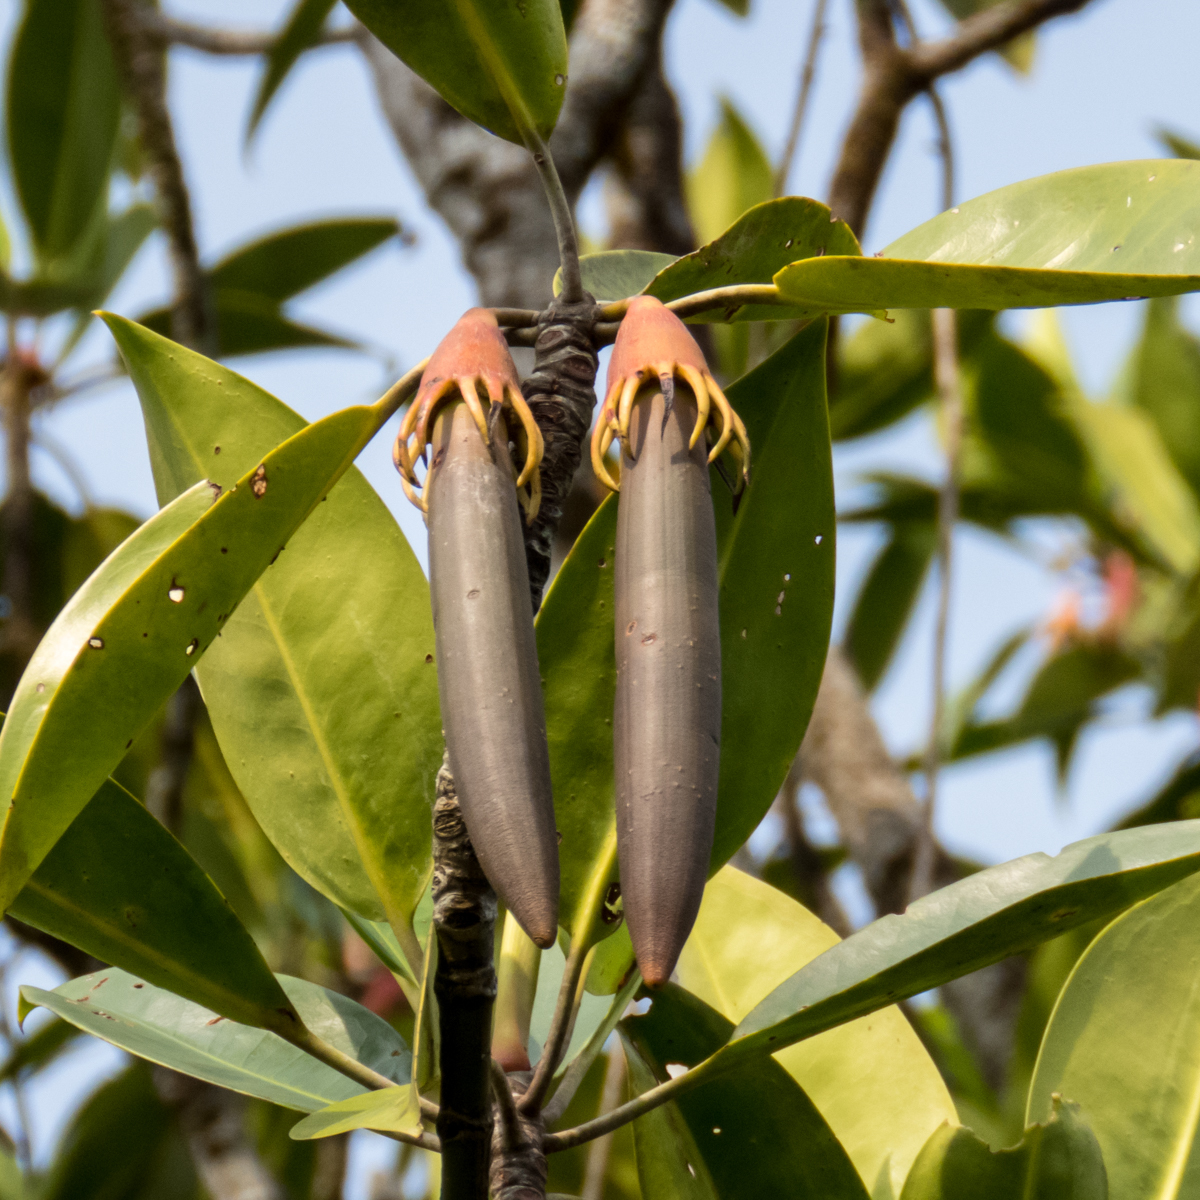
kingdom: Plantae
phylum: Tracheophyta
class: Magnoliopsida
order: Malpighiales
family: Rhizophoraceae
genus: Bruguiera
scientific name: Bruguiera gymnorhiza
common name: Oriental mangrove
